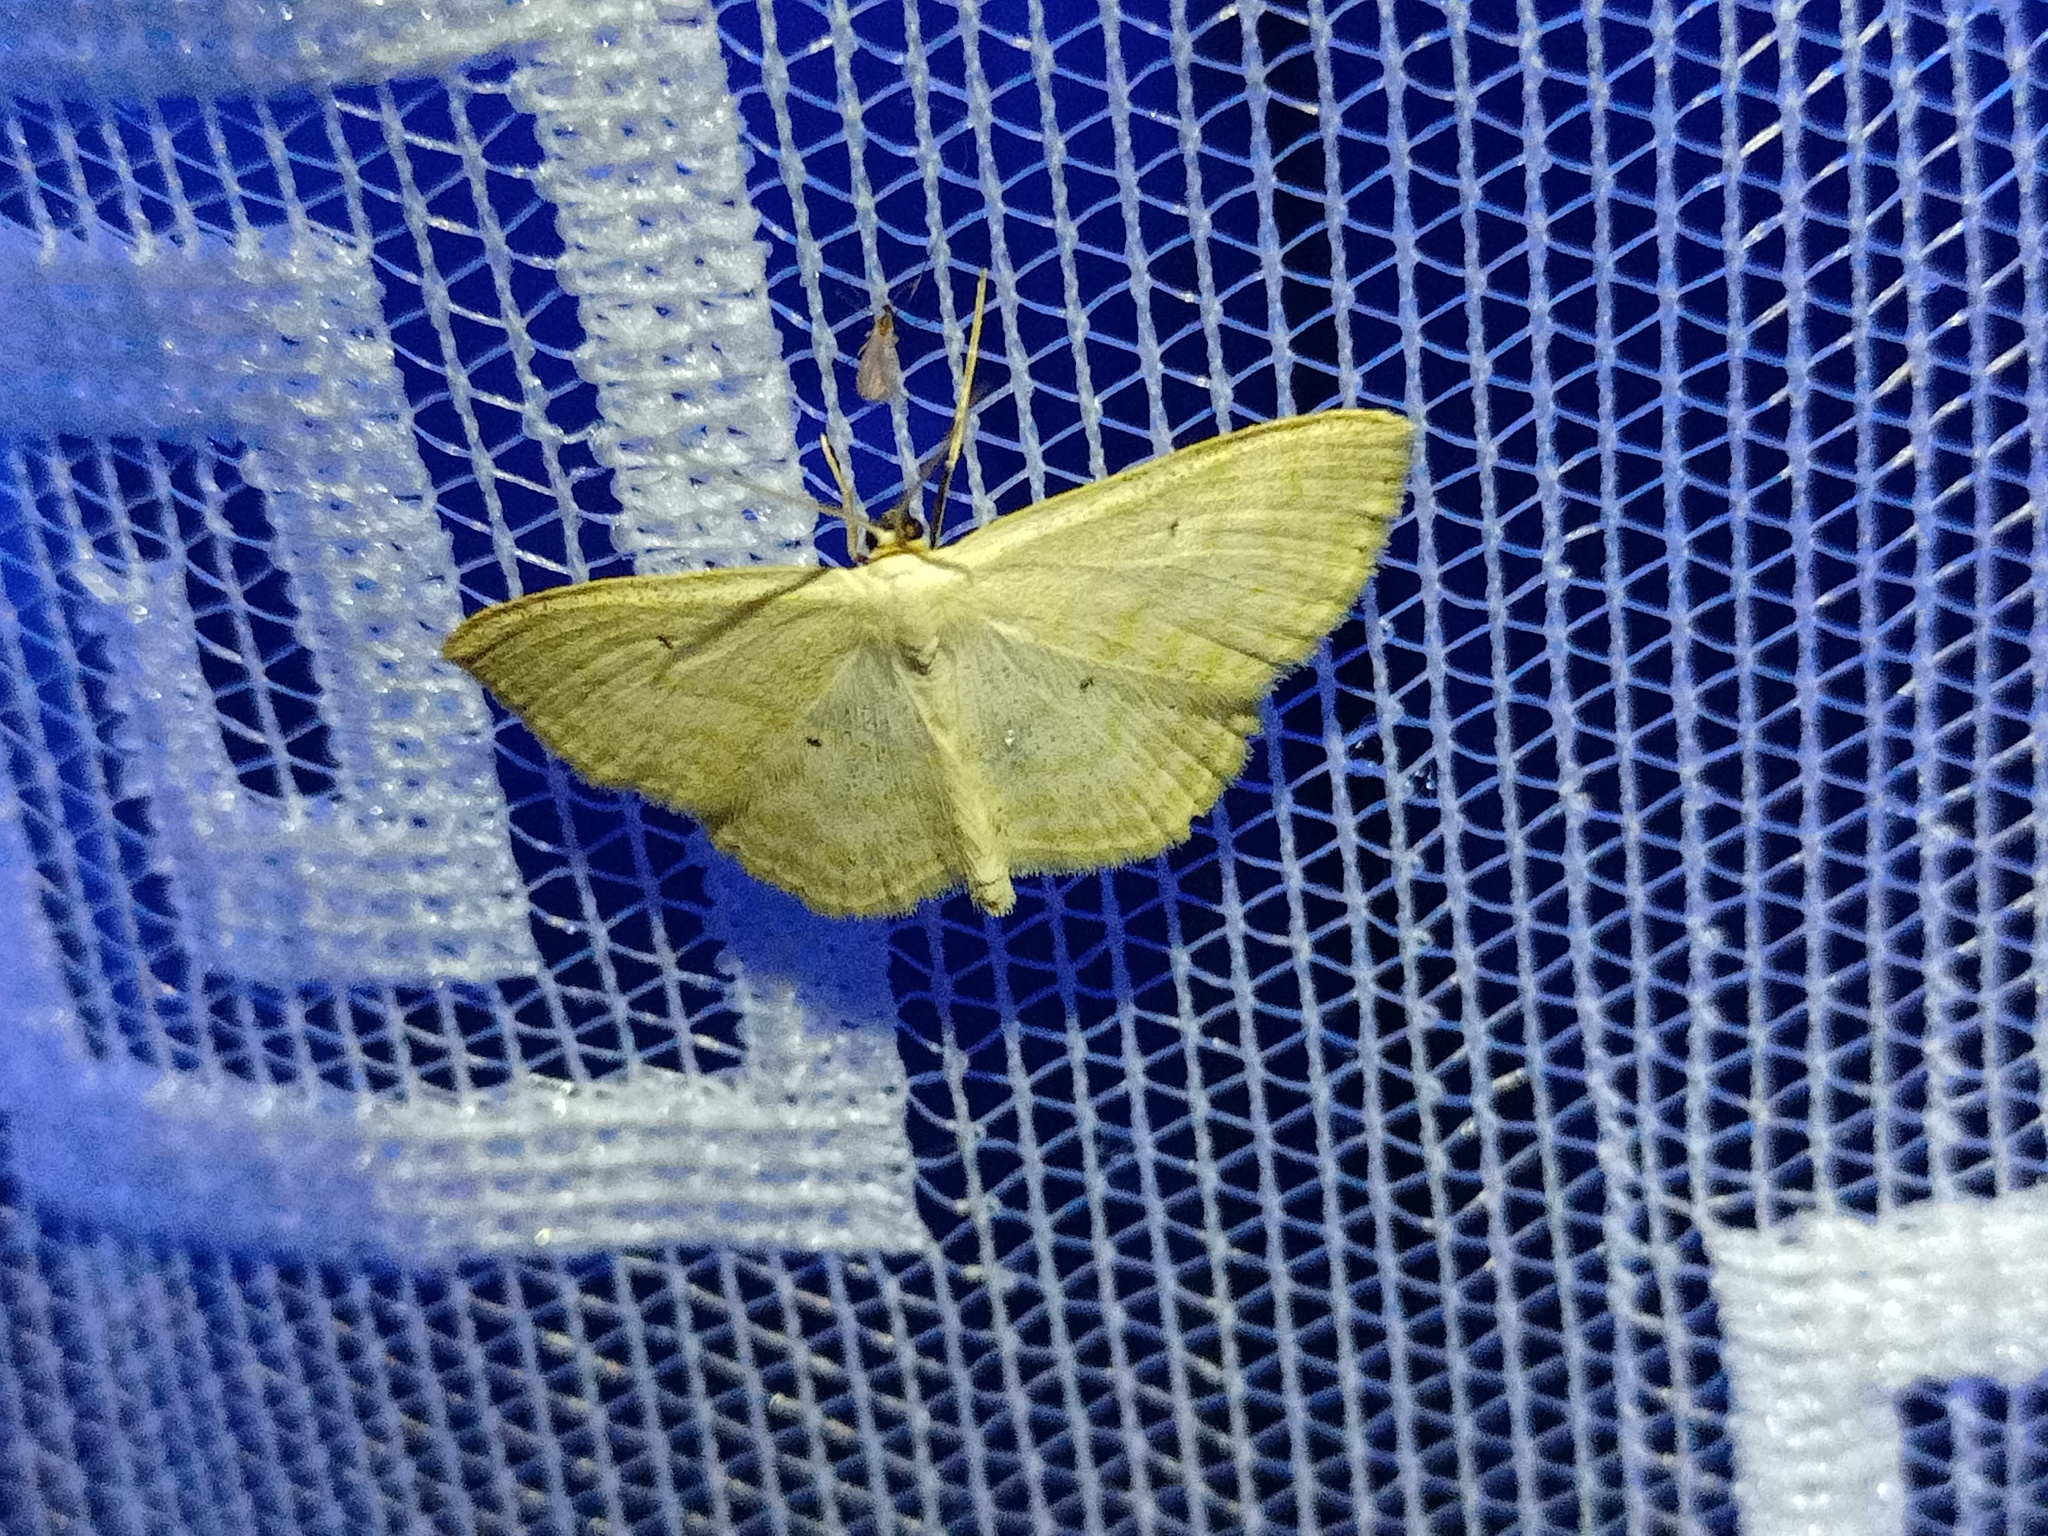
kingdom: Animalia
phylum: Arthropoda
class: Insecta
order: Lepidoptera
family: Geometridae
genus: Scopula
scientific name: Scopula immutata
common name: Lesser cream wave
